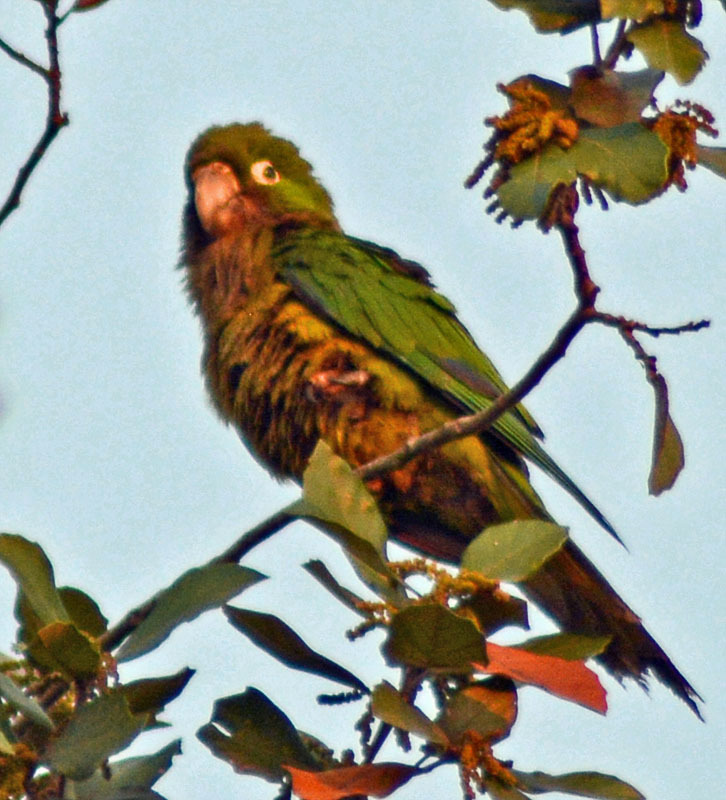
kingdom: Animalia
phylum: Chordata
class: Aves
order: Psittaciformes
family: Psittacidae
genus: Aratinga
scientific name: Aratinga nana
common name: Olive-throated parakeet
